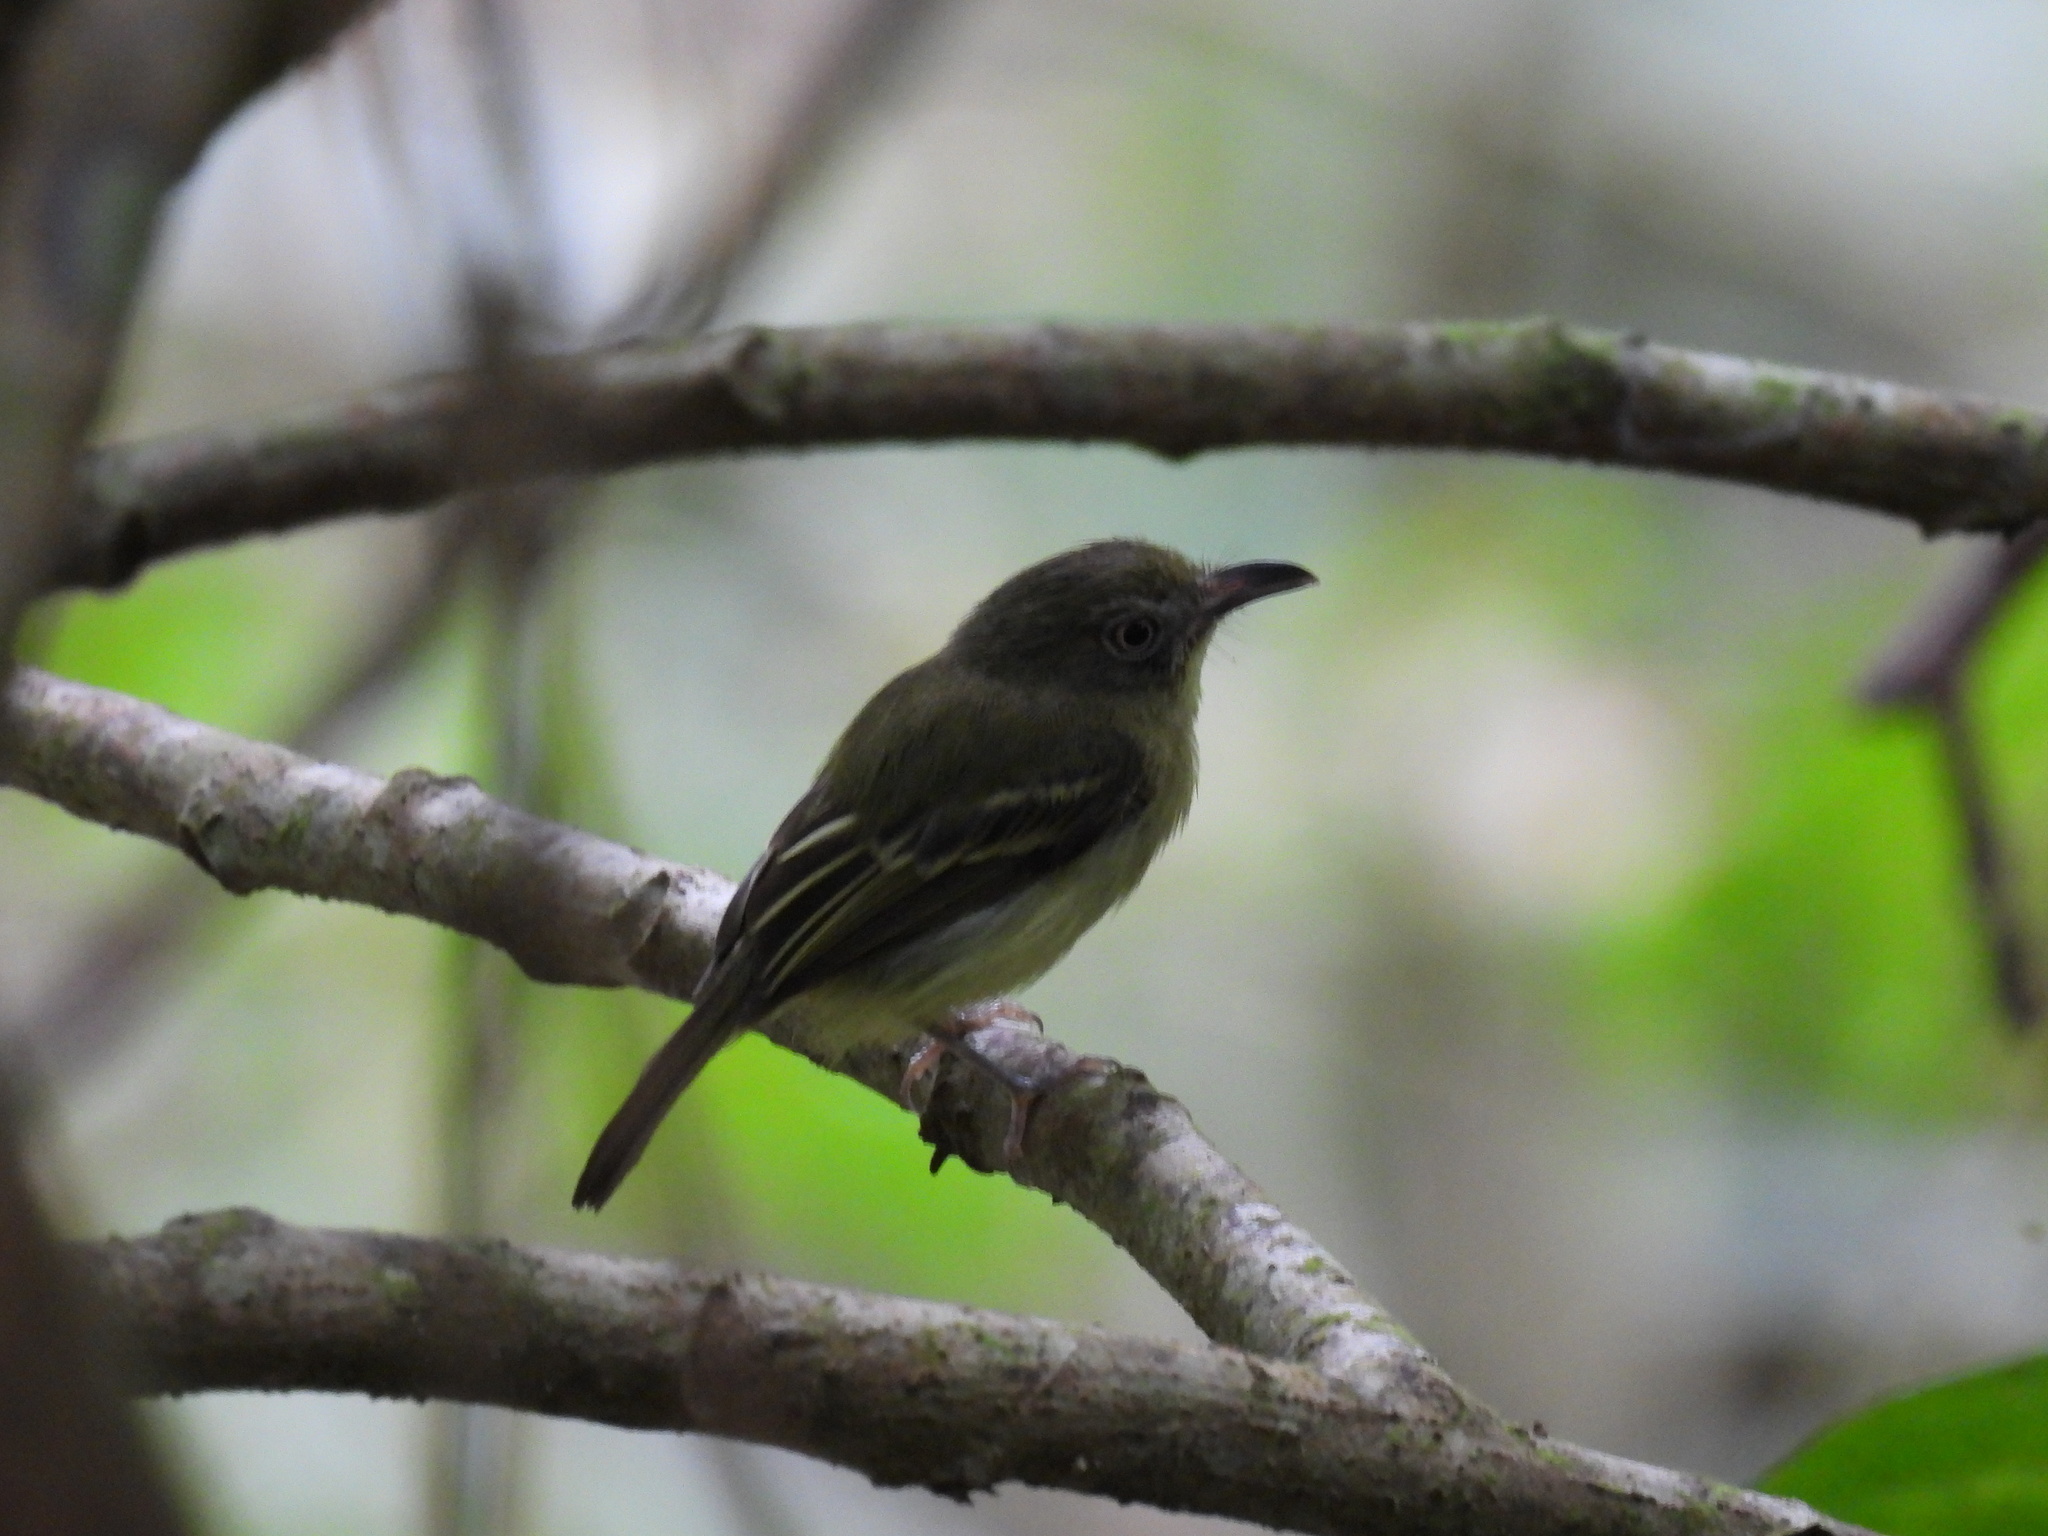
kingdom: Animalia
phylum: Chordata
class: Aves
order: Passeriformes
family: Tyrannidae
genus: Oncostoma
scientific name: Oncostoma olivaceum
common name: Southern bentbill
